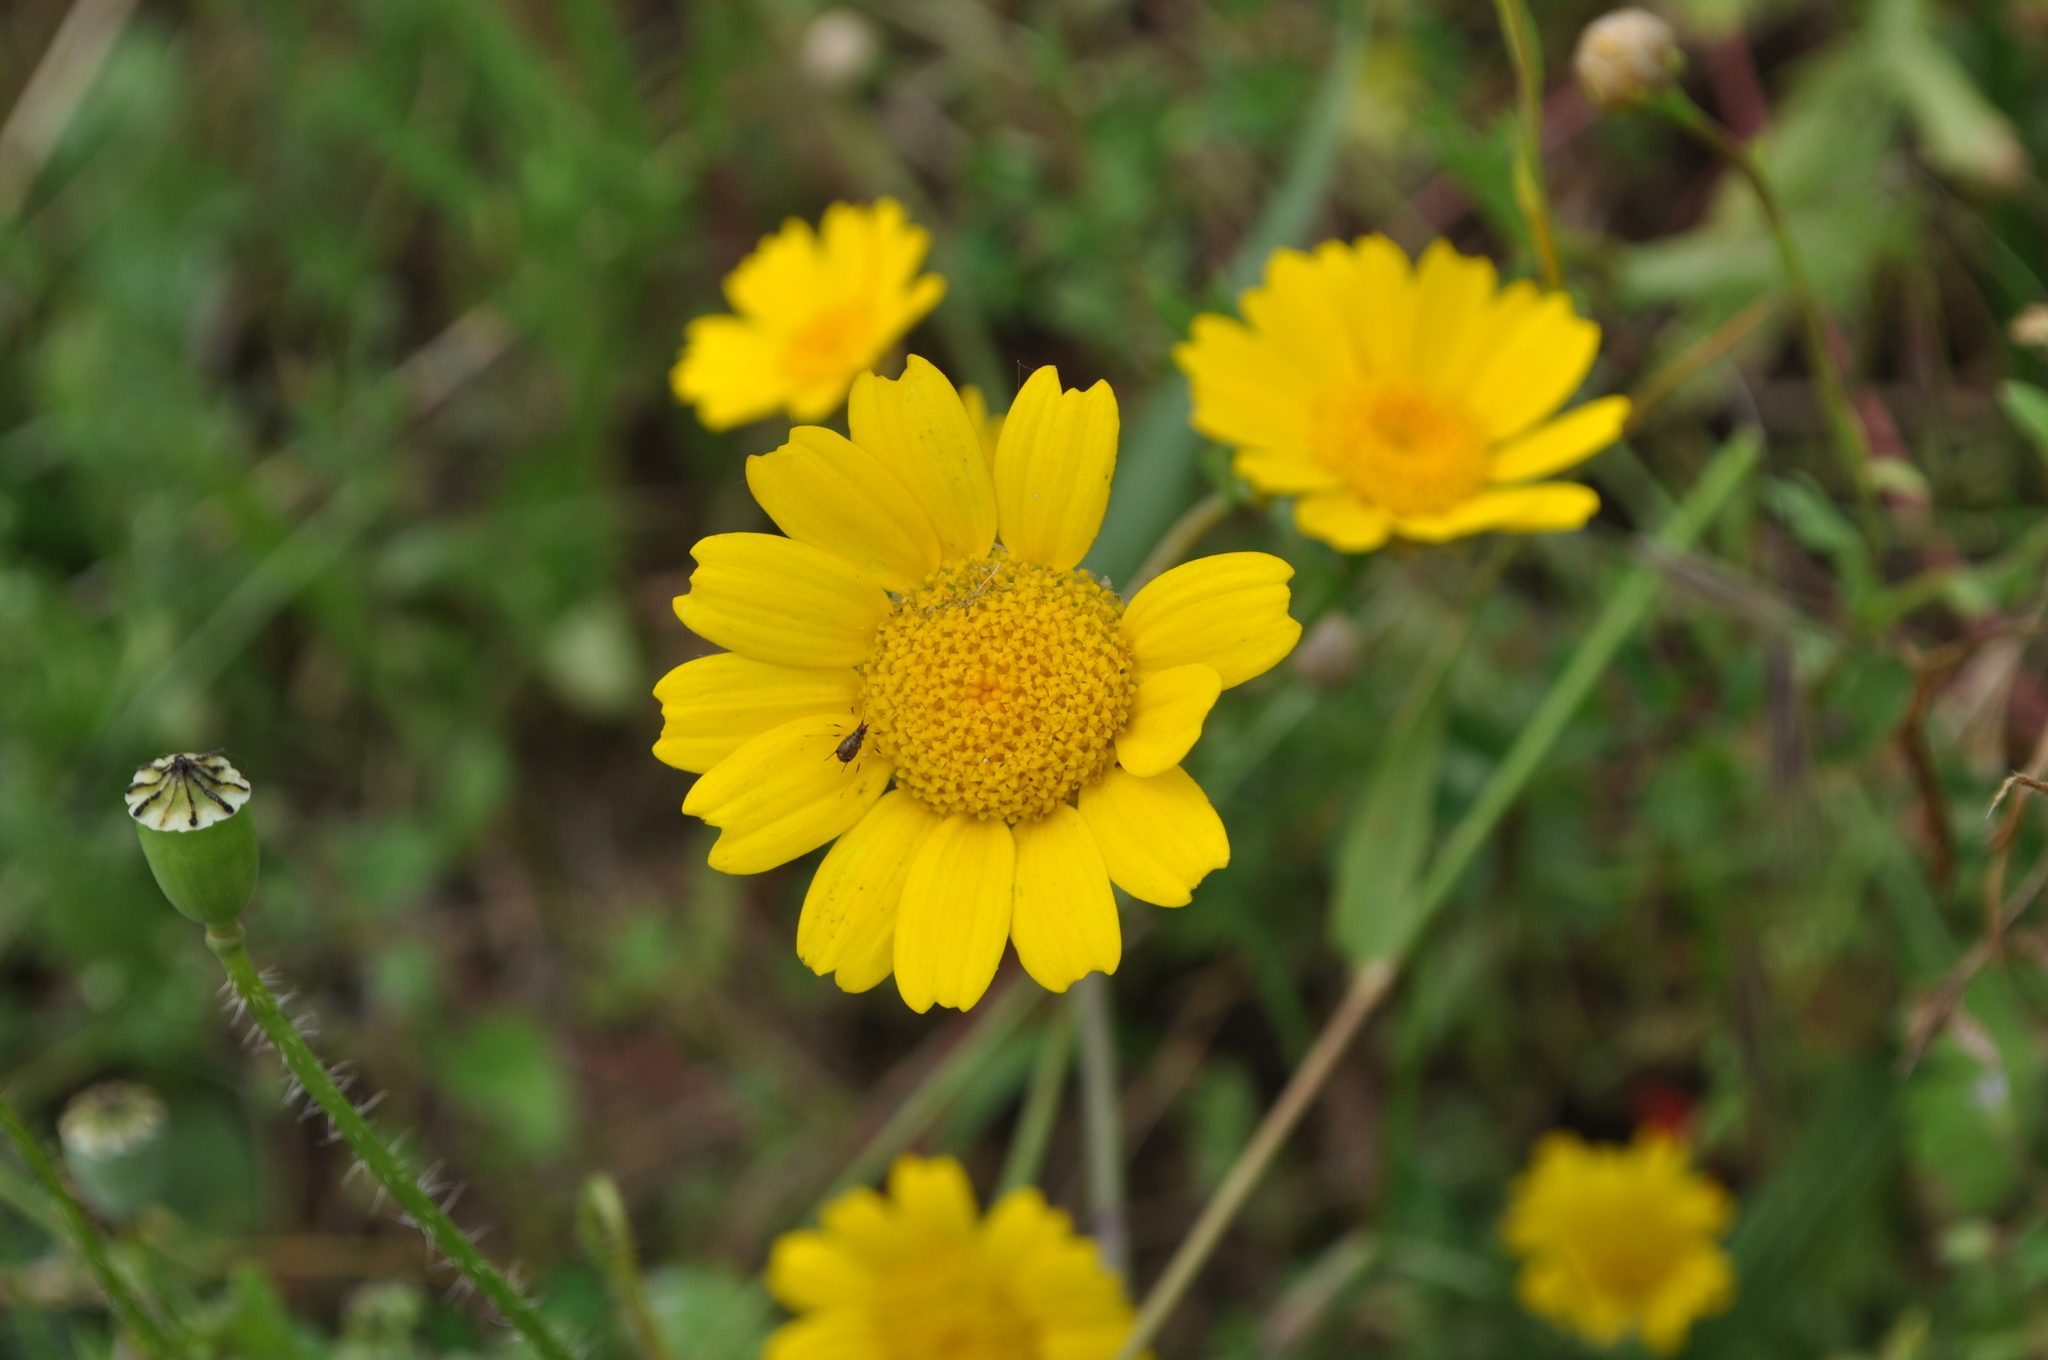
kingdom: Plantae
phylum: Tracheophyta
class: Magnoliopsida
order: Asterales
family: Asteraceae
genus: Glebionis
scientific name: Glebionis segetum
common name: Corndaisy
